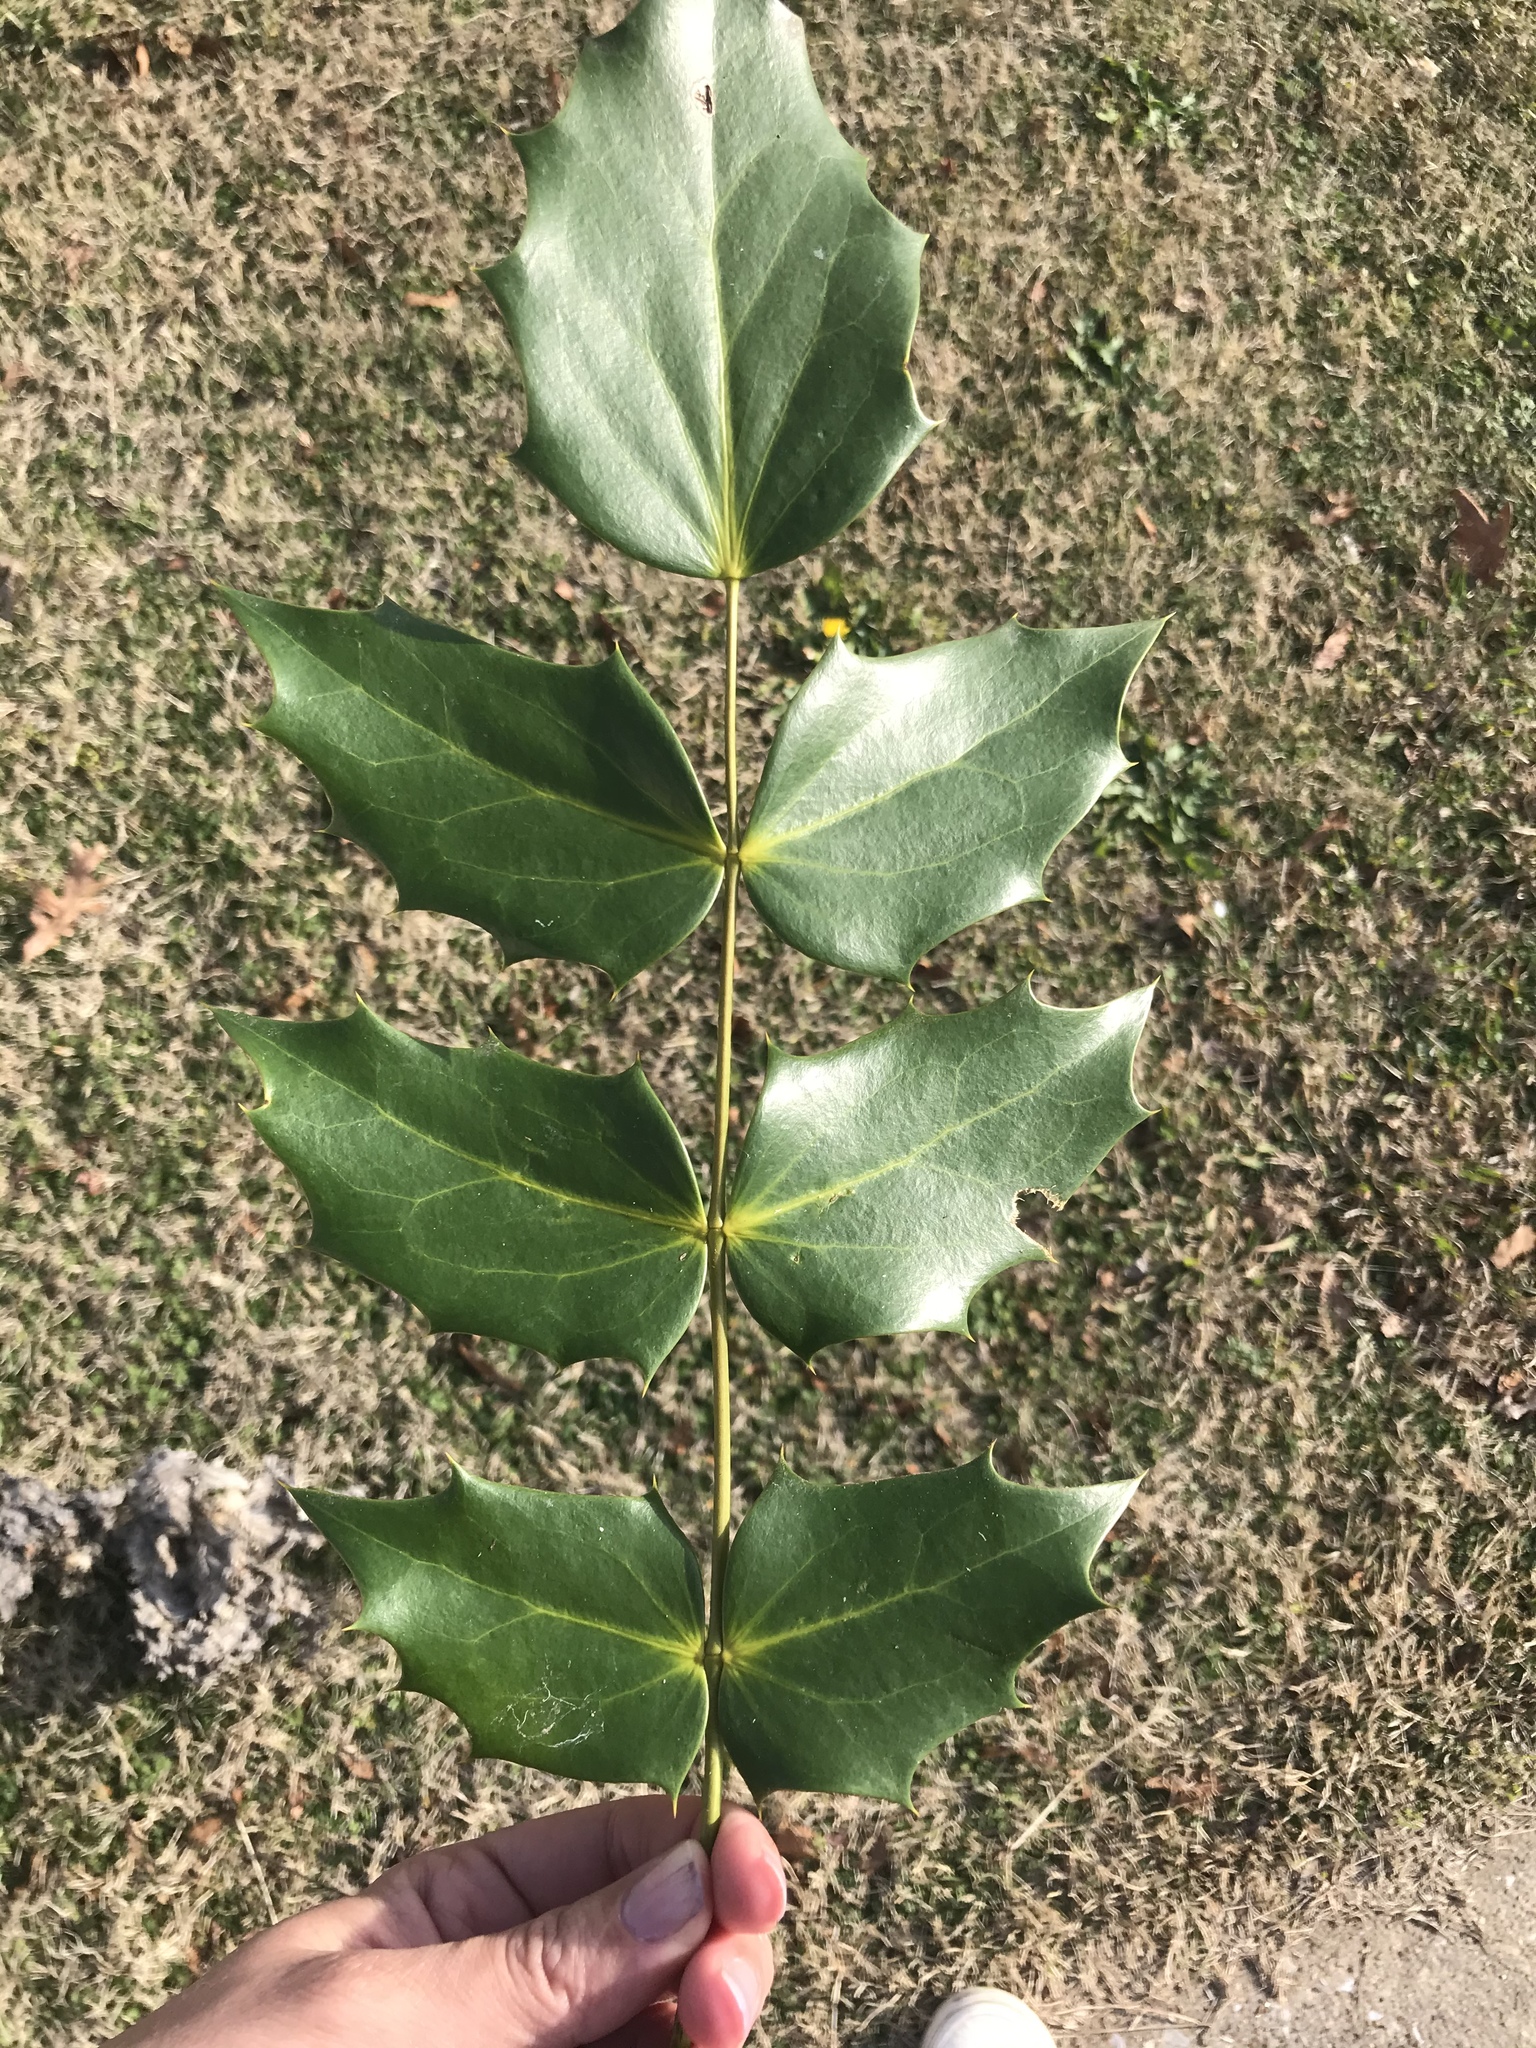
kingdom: Plantae
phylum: Tracheophyta
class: Magnoliopsida
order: Ranunculales
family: Berberidaceae
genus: Mahonia
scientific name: Mahonia bealei
